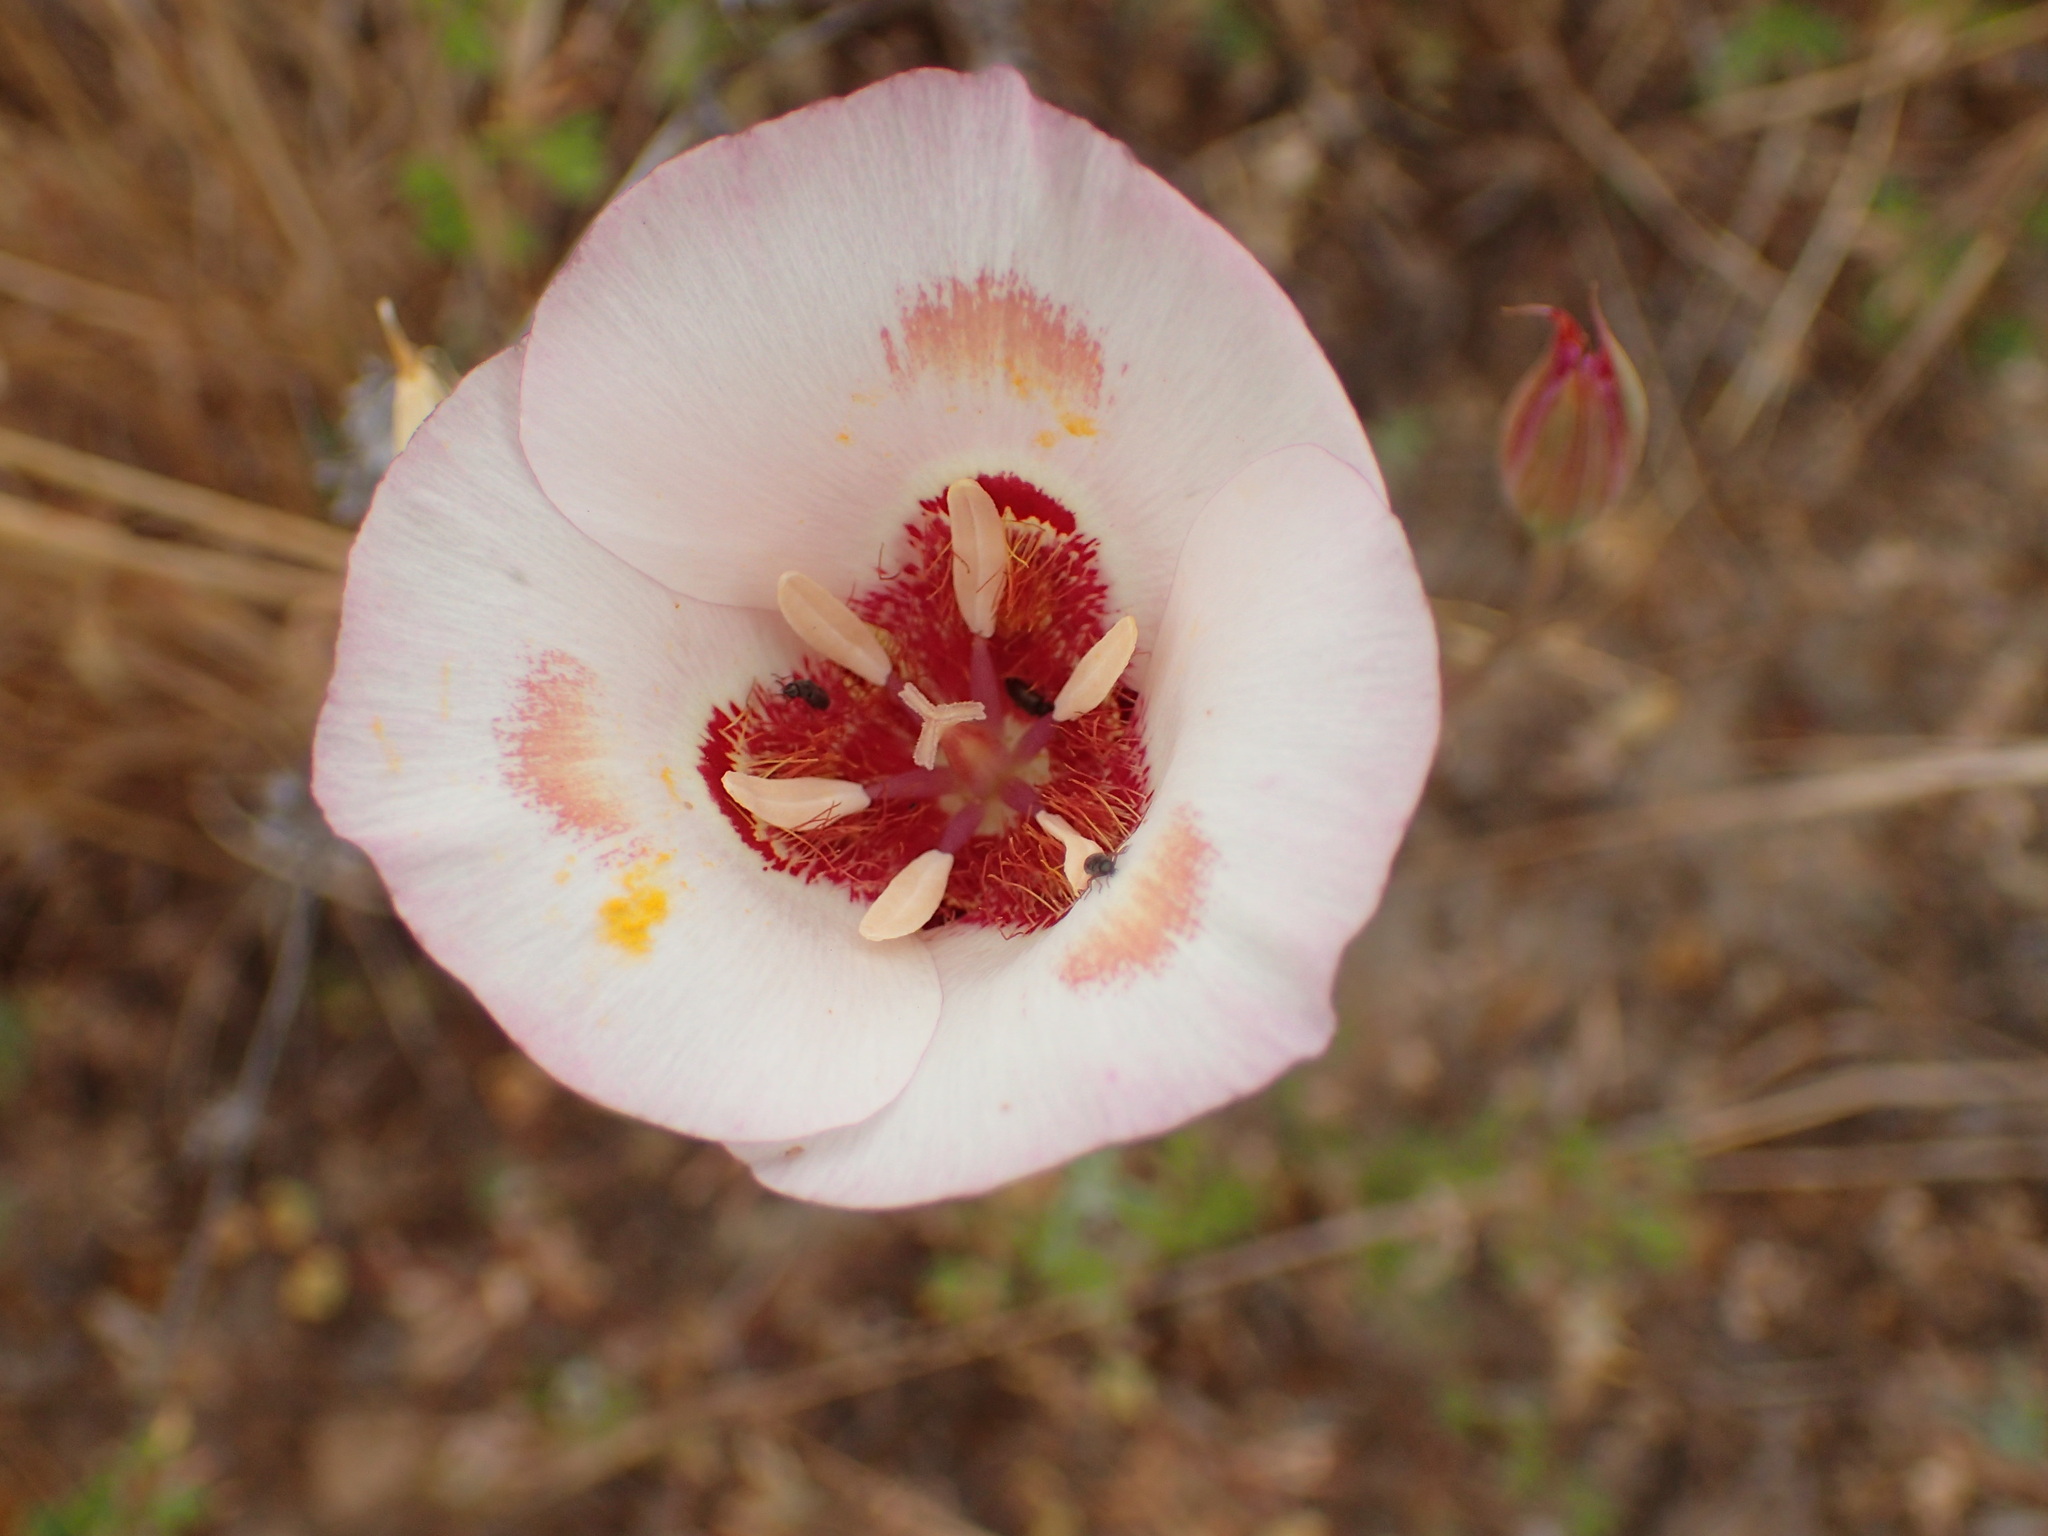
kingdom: Plantae
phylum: Tracheophyta
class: Liliopsida
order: Liliales
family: Liliaceae
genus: Calochortus
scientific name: Calochortus venustus
